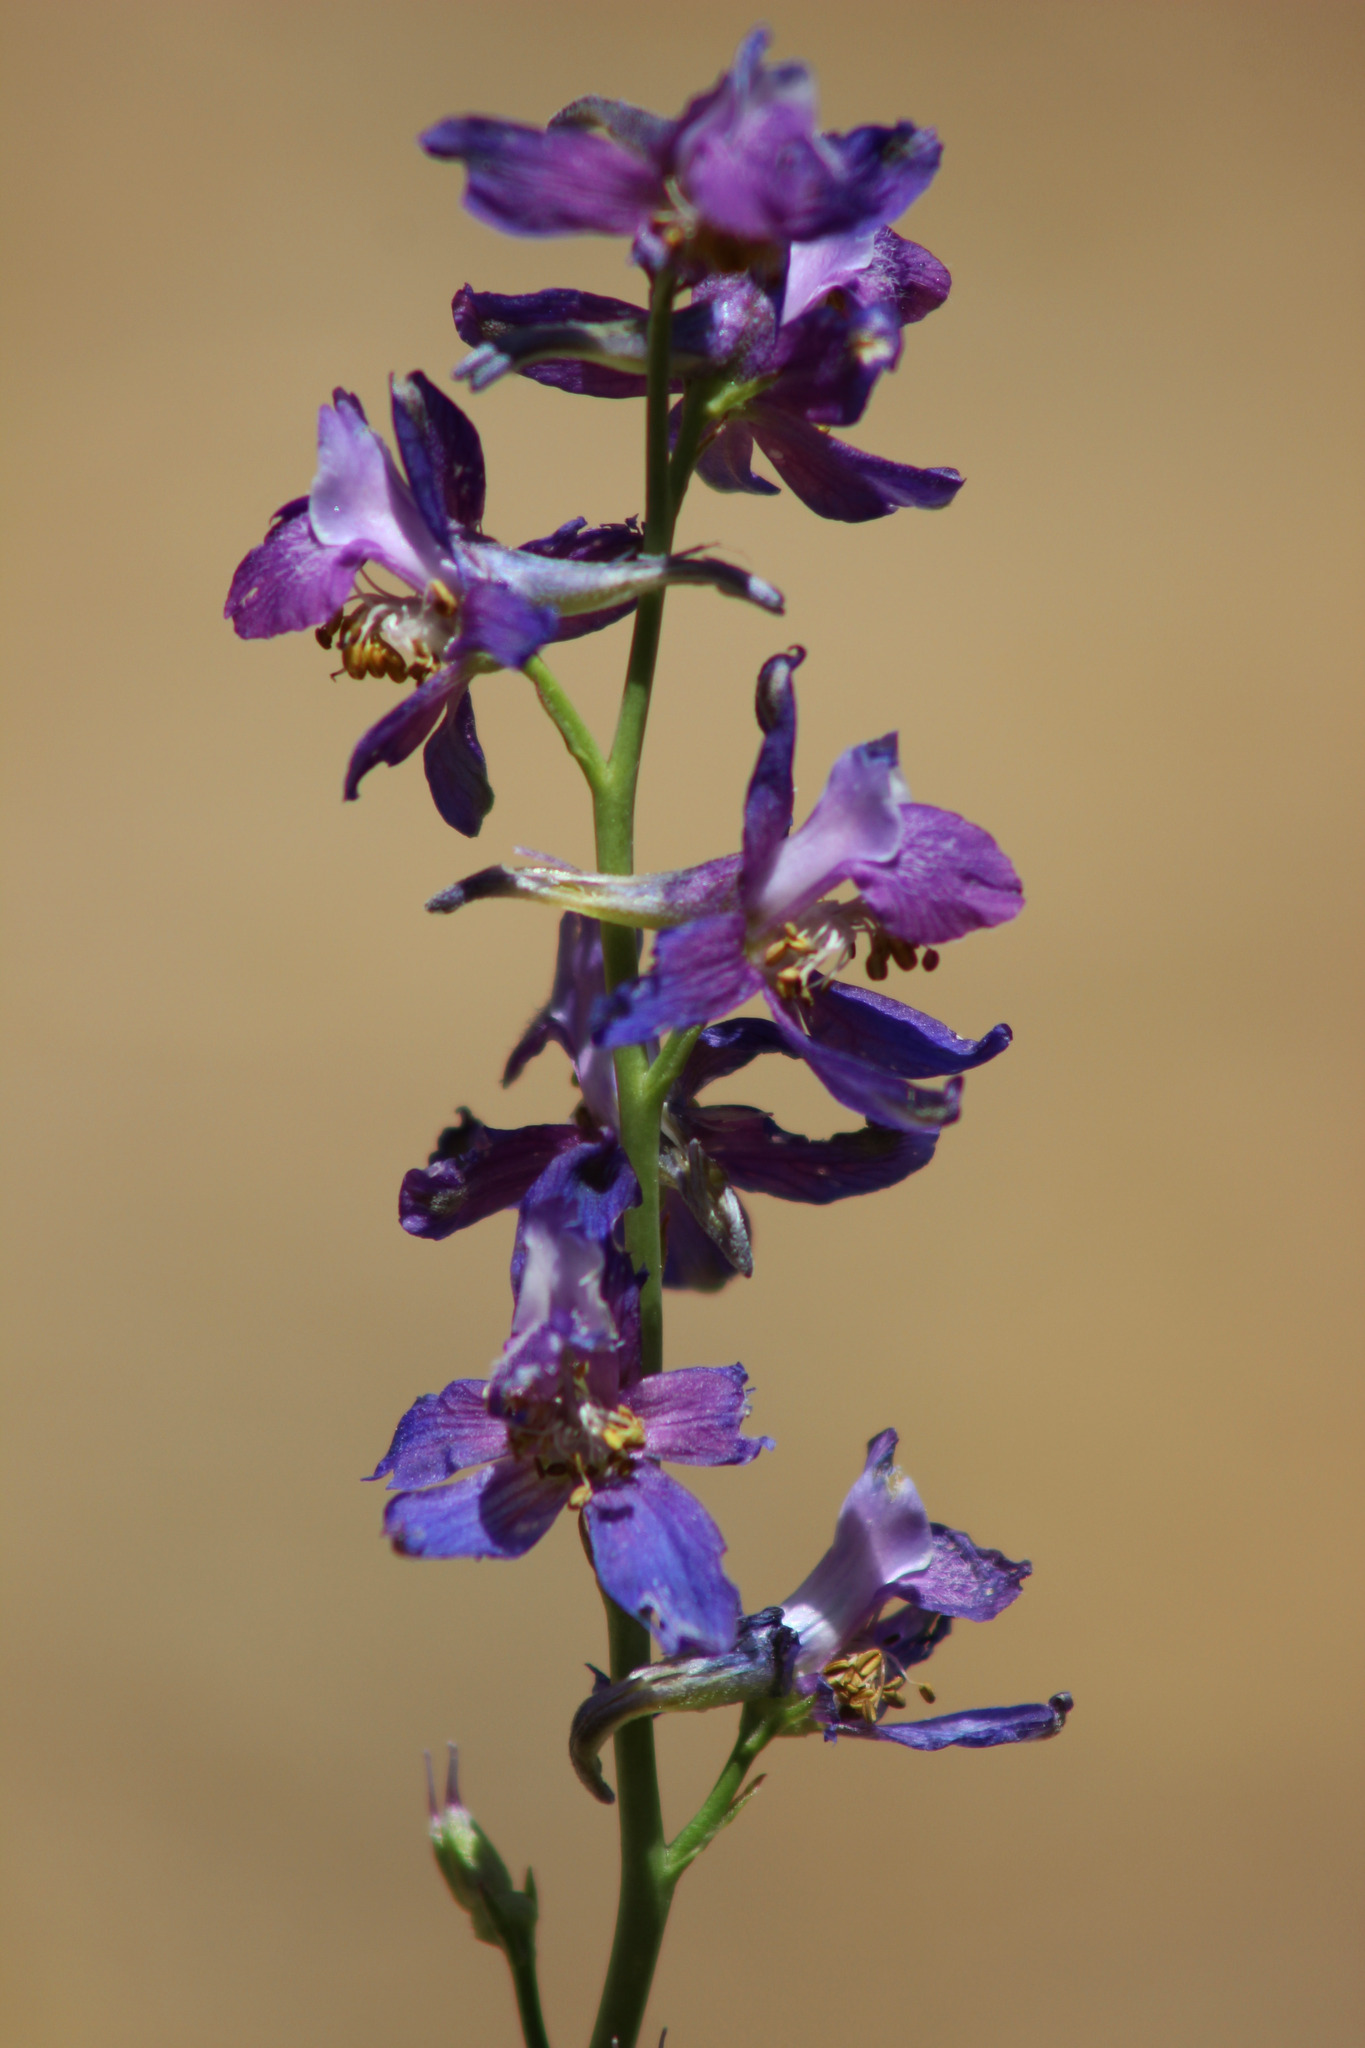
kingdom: Plantae
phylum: Tracheophyta
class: Magnoliopsida
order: Ranunculales
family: Ranunculaceae
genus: Delphinium
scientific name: Delphinium parryi
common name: Parry's larkspur
